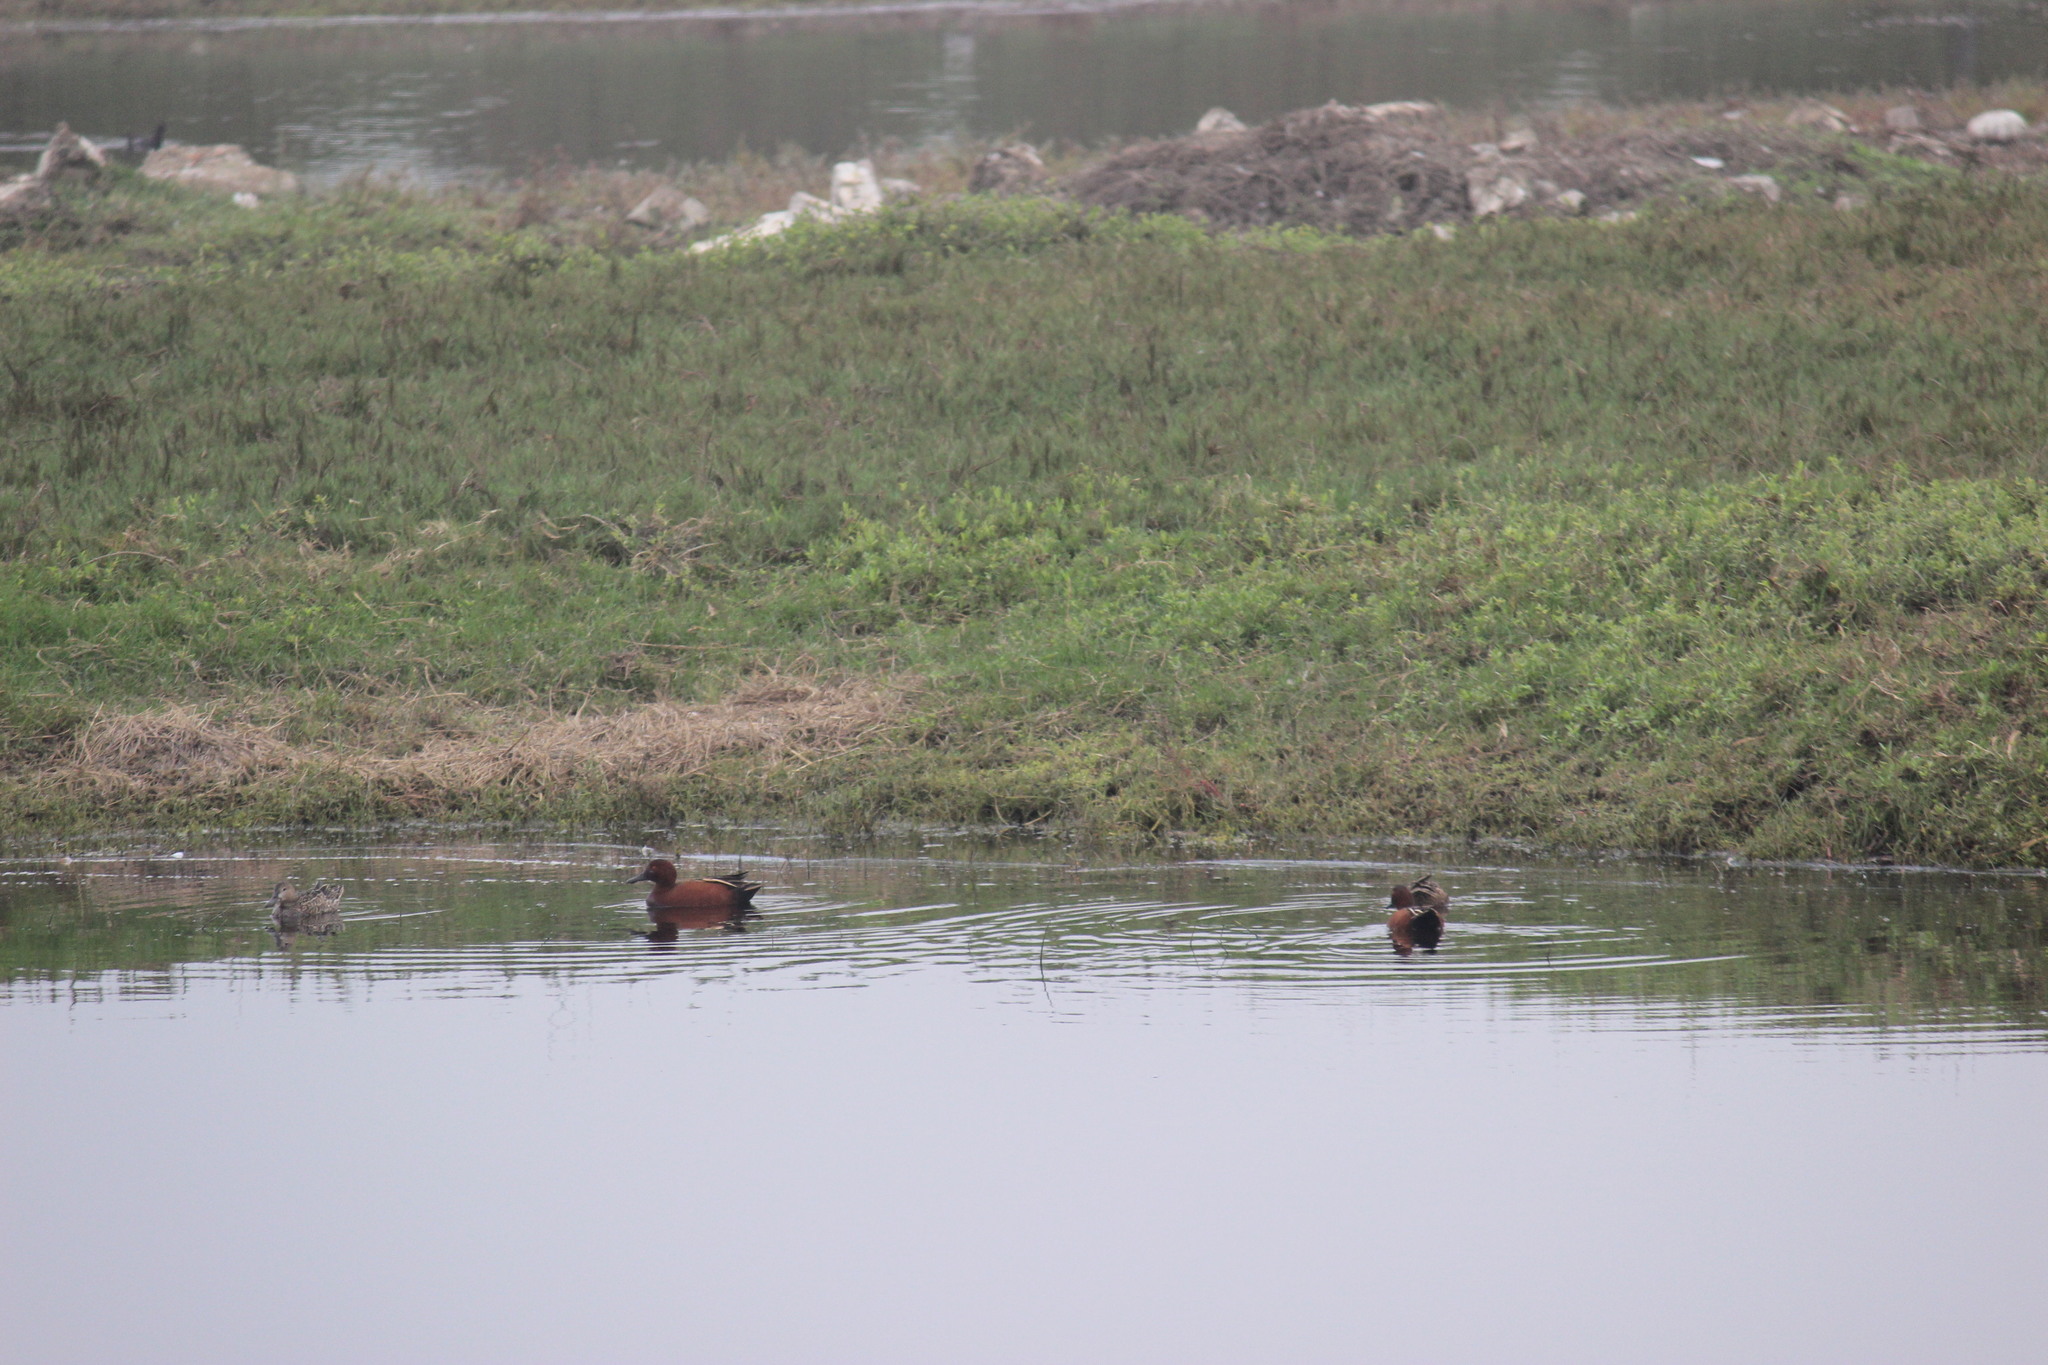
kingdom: Animalia
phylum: Chordata
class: Aves
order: Anseriformes
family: Anatidae
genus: Spatula
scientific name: Spatula cyanoptera
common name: Cinnamon teal
